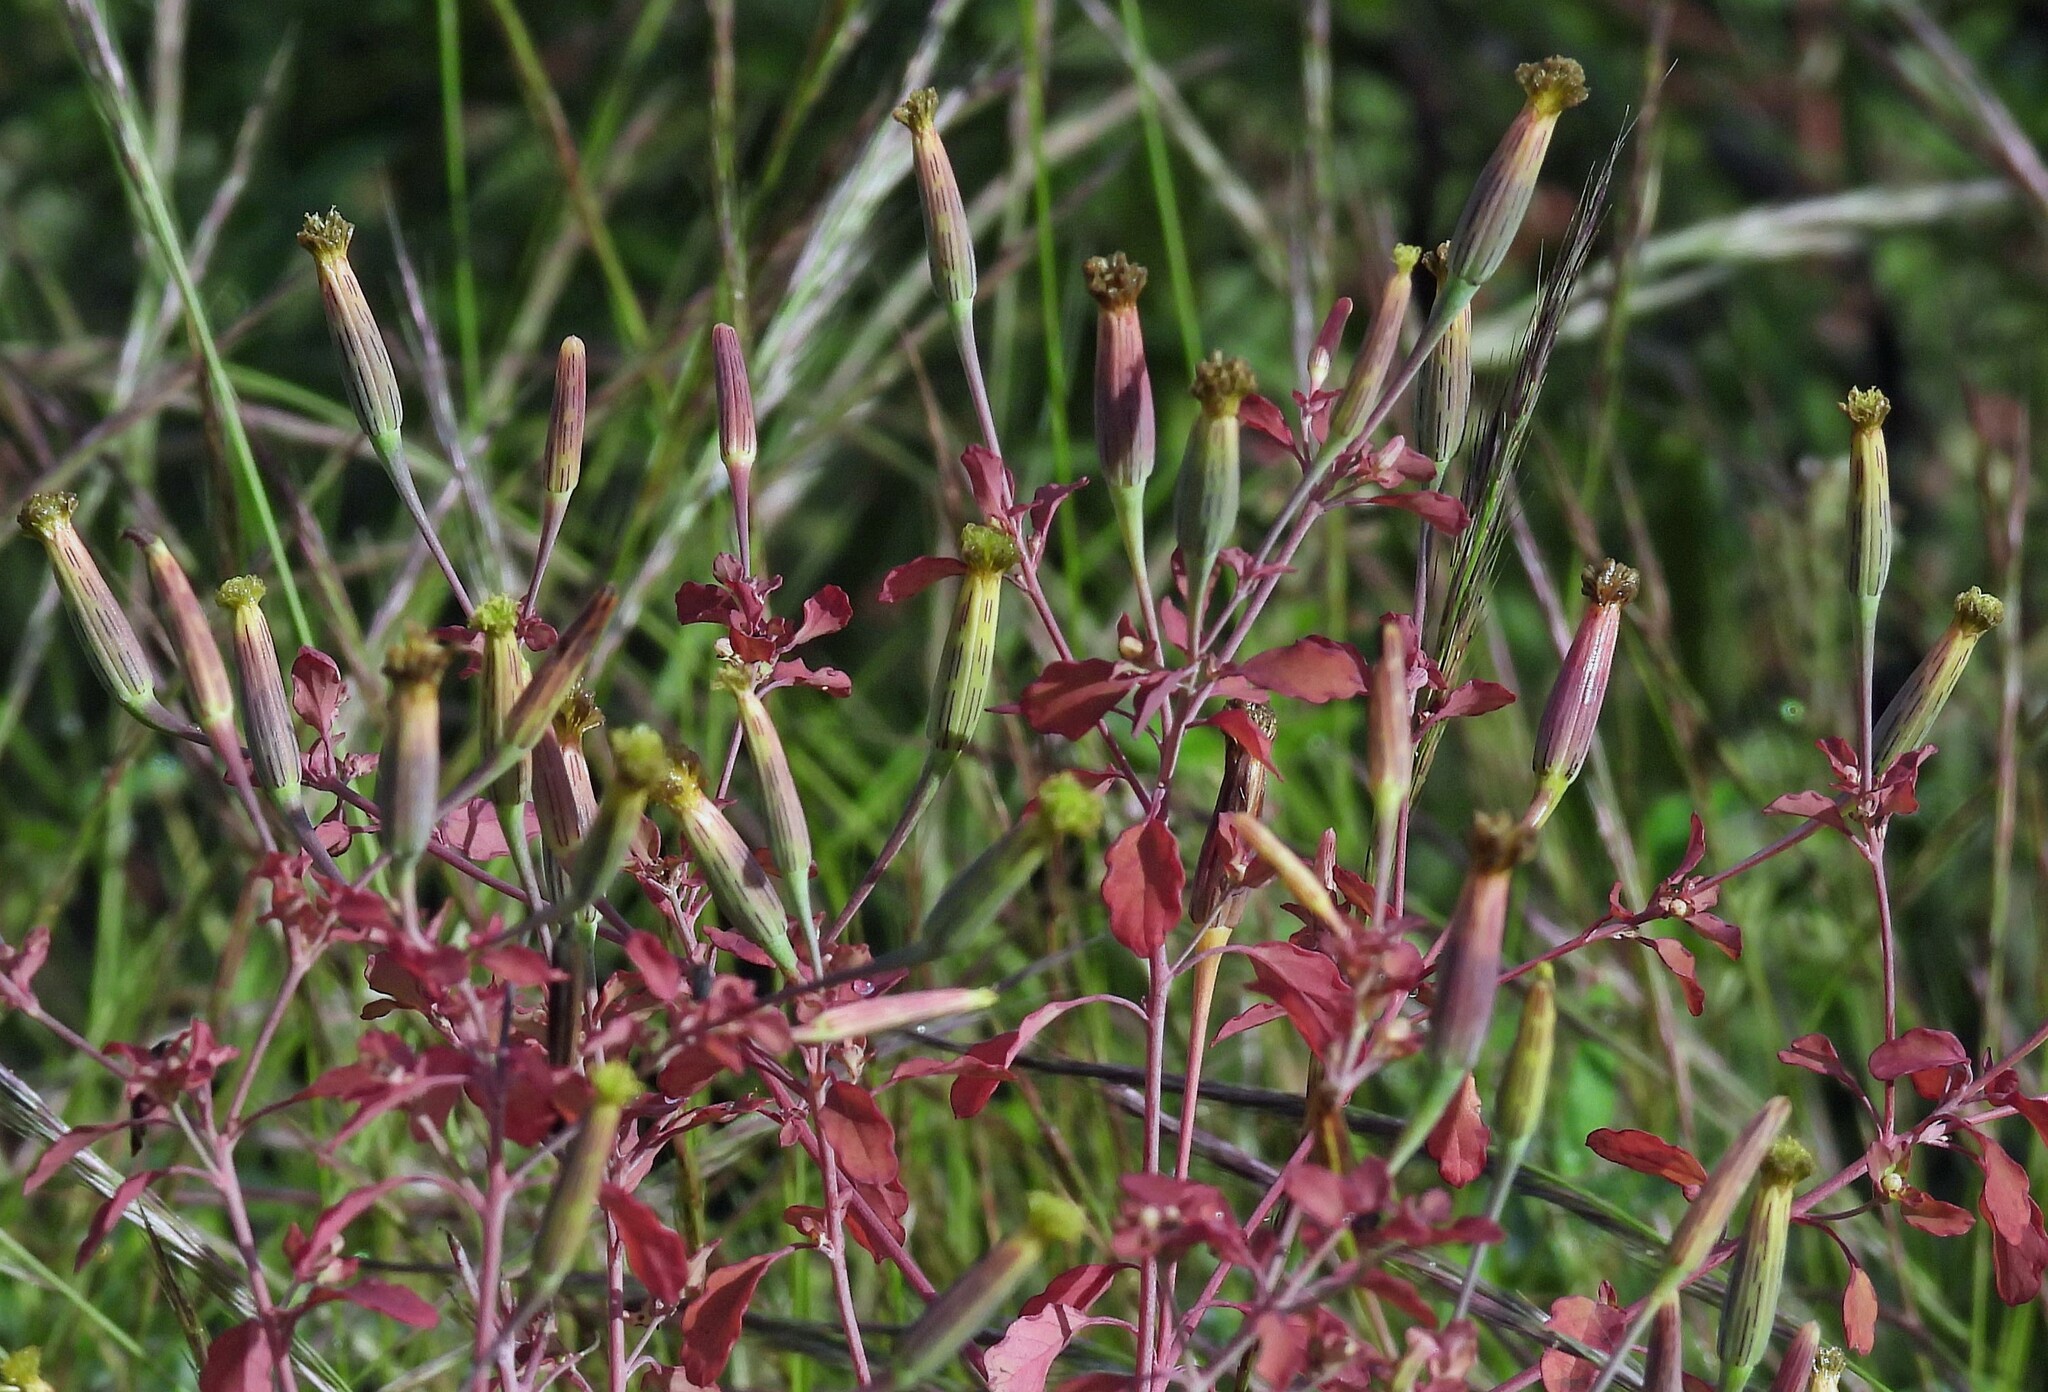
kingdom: Plantae
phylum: Tracheophyta
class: Magnoliopsida
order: Asterales
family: Asteraceae
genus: Porophyllum
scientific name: Porophyllum ruderale
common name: Yerba porosa
